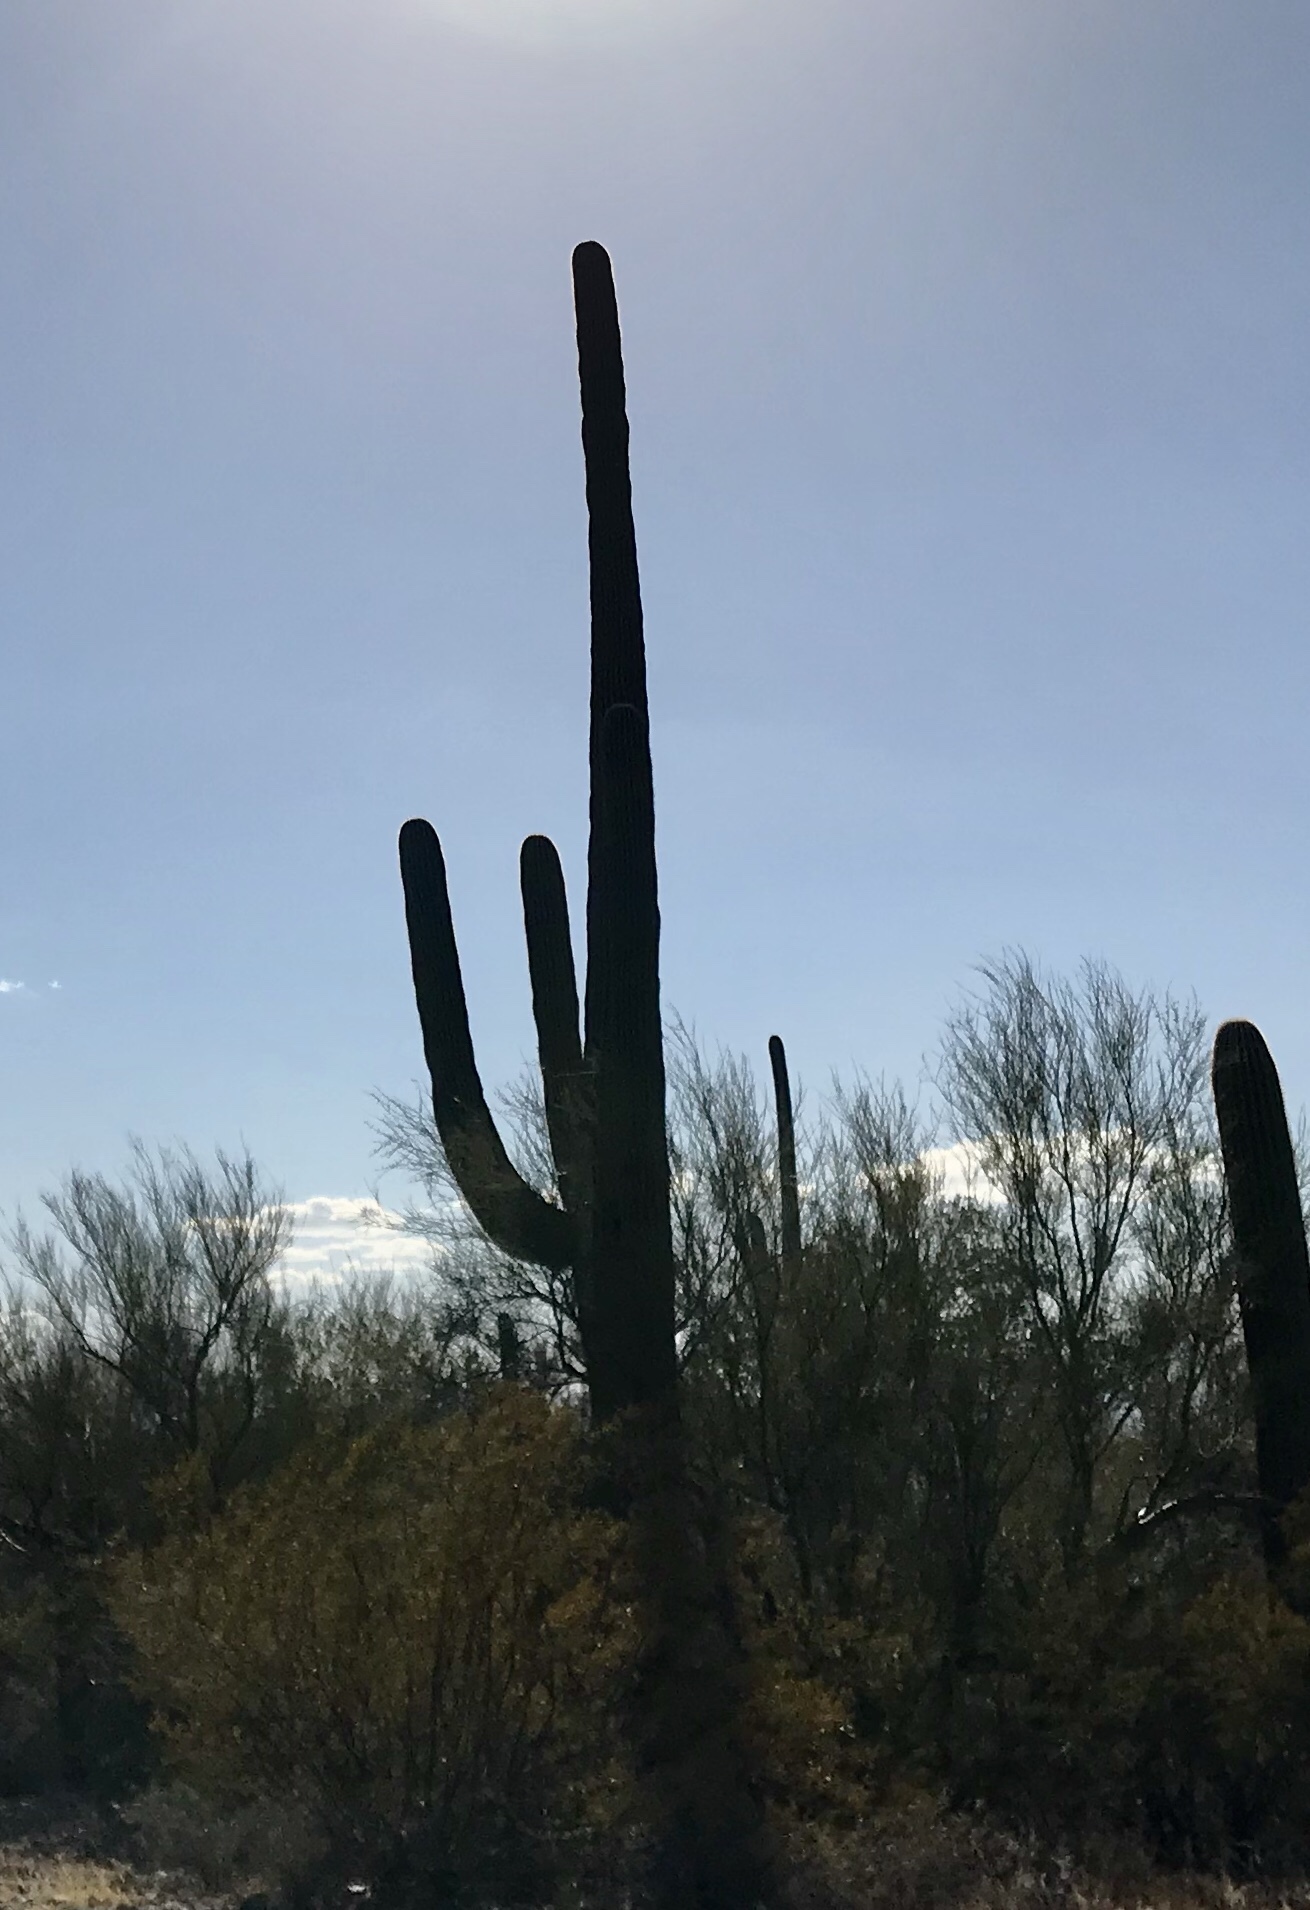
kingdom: Plantae
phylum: Tracheophyta
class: Magnoliopsida
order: Caryophyllales
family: Cactaceae
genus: Carnegiea
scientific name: Carnegiea gigantea
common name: Saguaro
